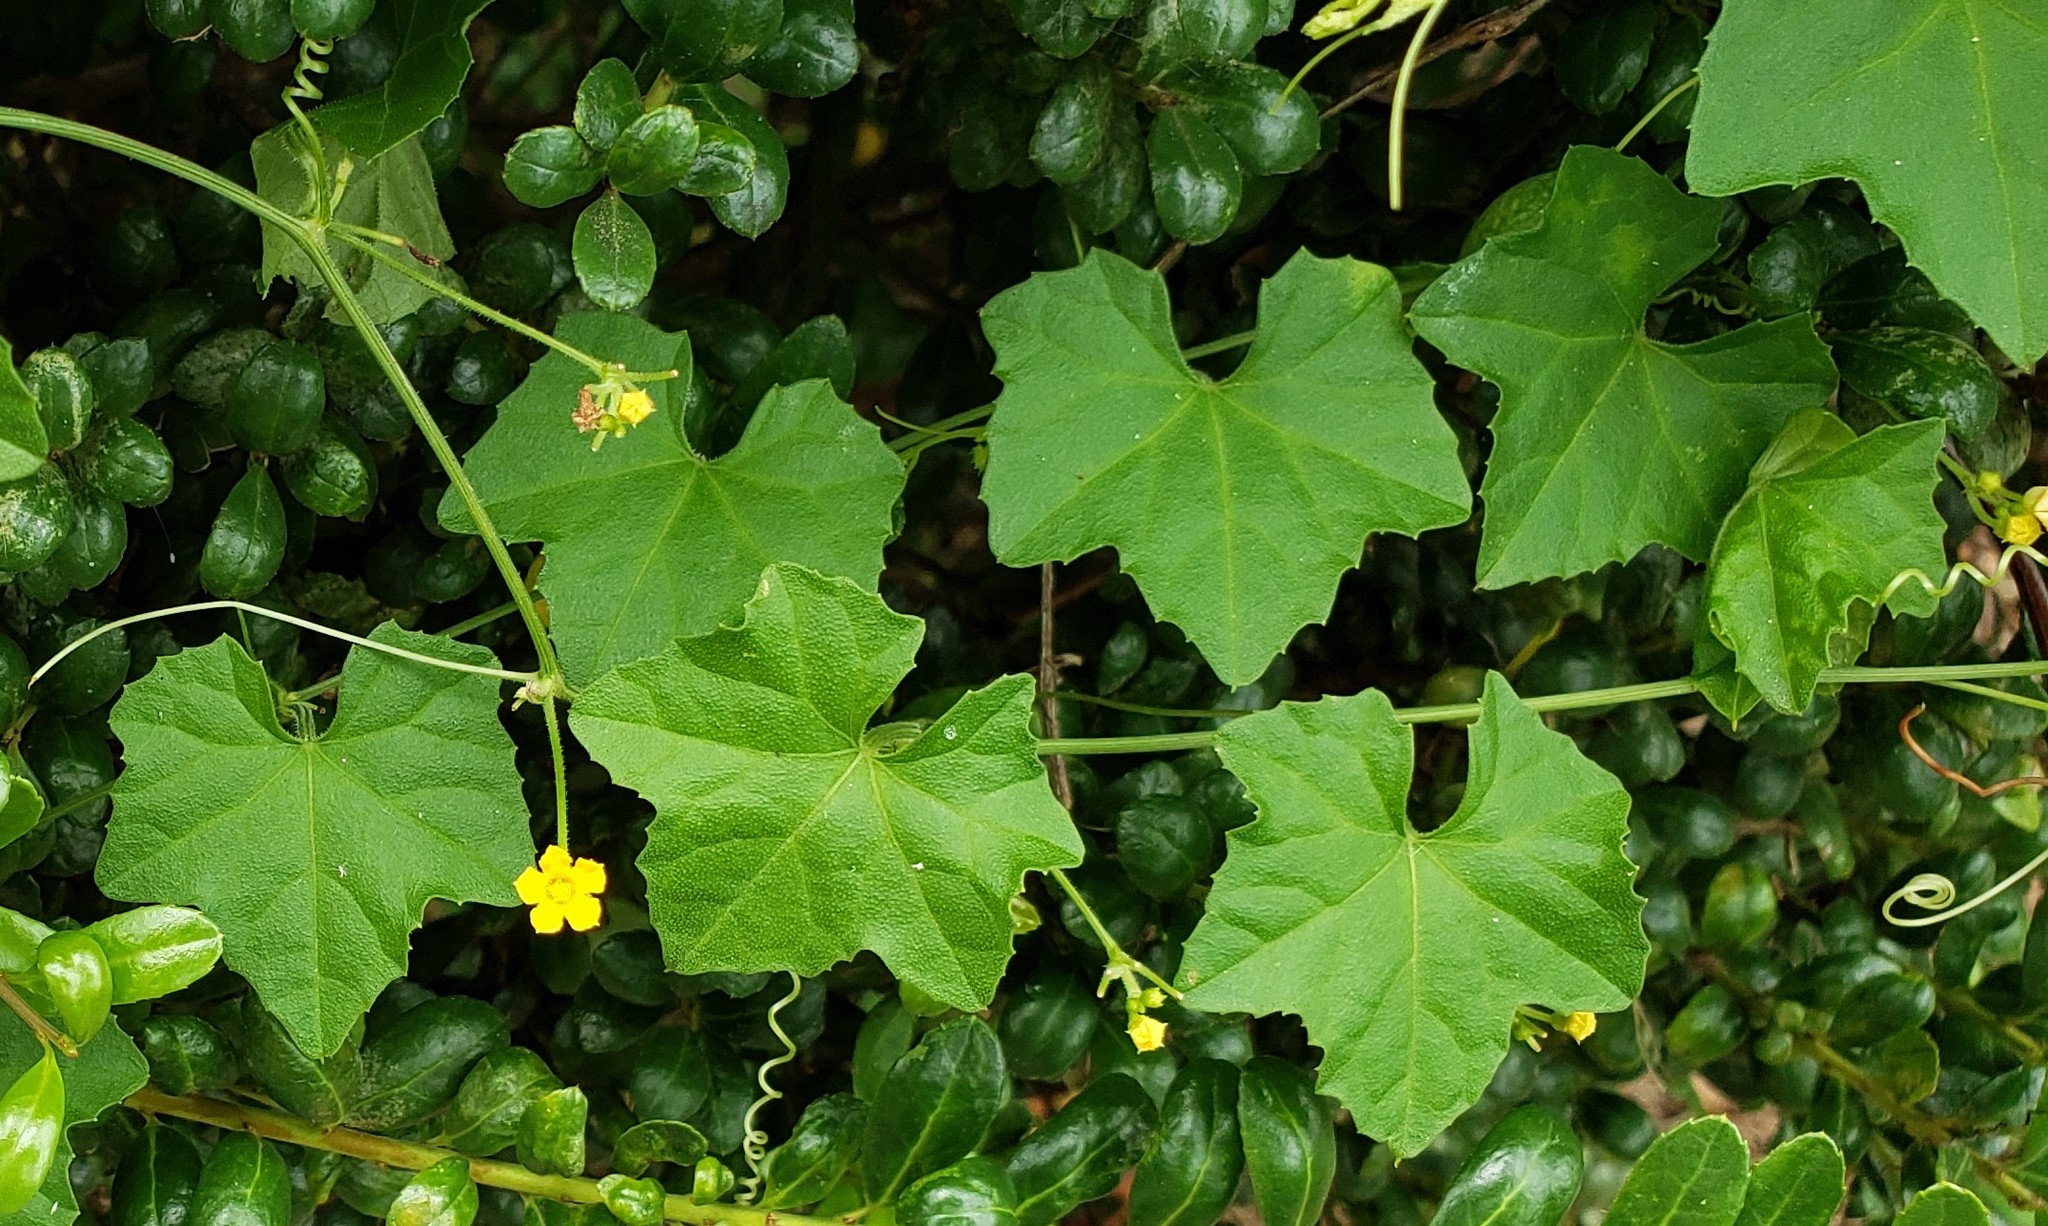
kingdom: Plantae
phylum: Tracheophyta
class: Magnoliopsida
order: Cucurbitales
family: Cucurbitaceae
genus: Melothria
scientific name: Melothria pendula
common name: Creeping-cucumber
